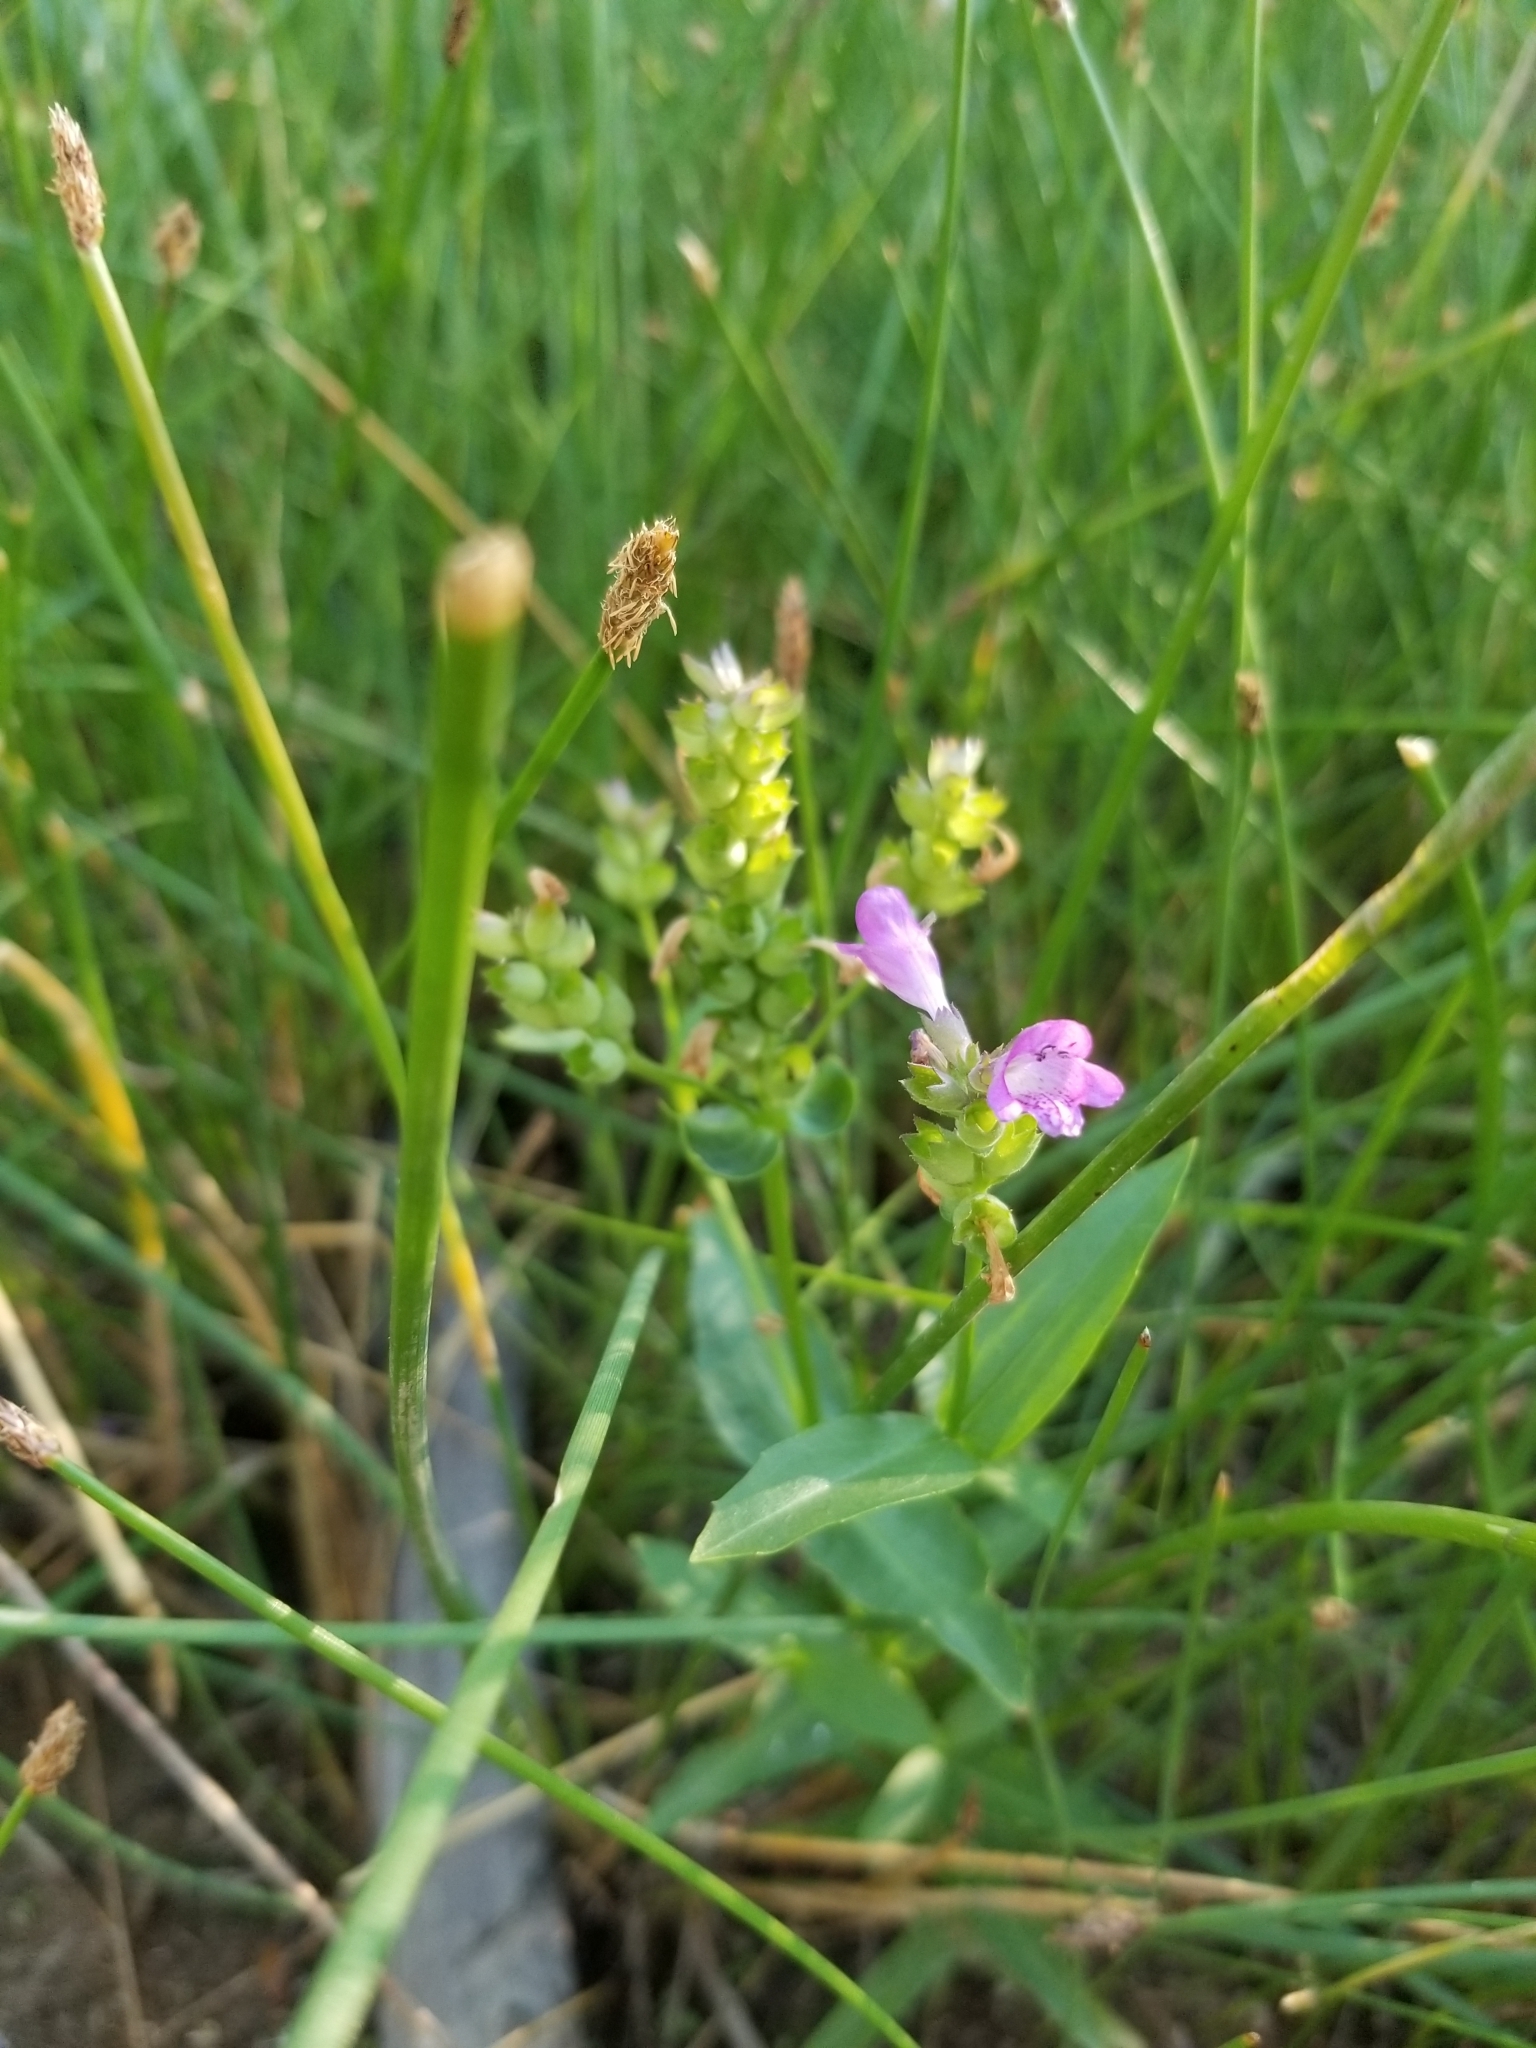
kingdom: Plantae
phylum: Tracheophyta
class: Magnoliopsida
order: Lamiales
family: Lamiaceae
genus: Physostegia
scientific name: Physostegia parviflora
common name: American dragonhead
